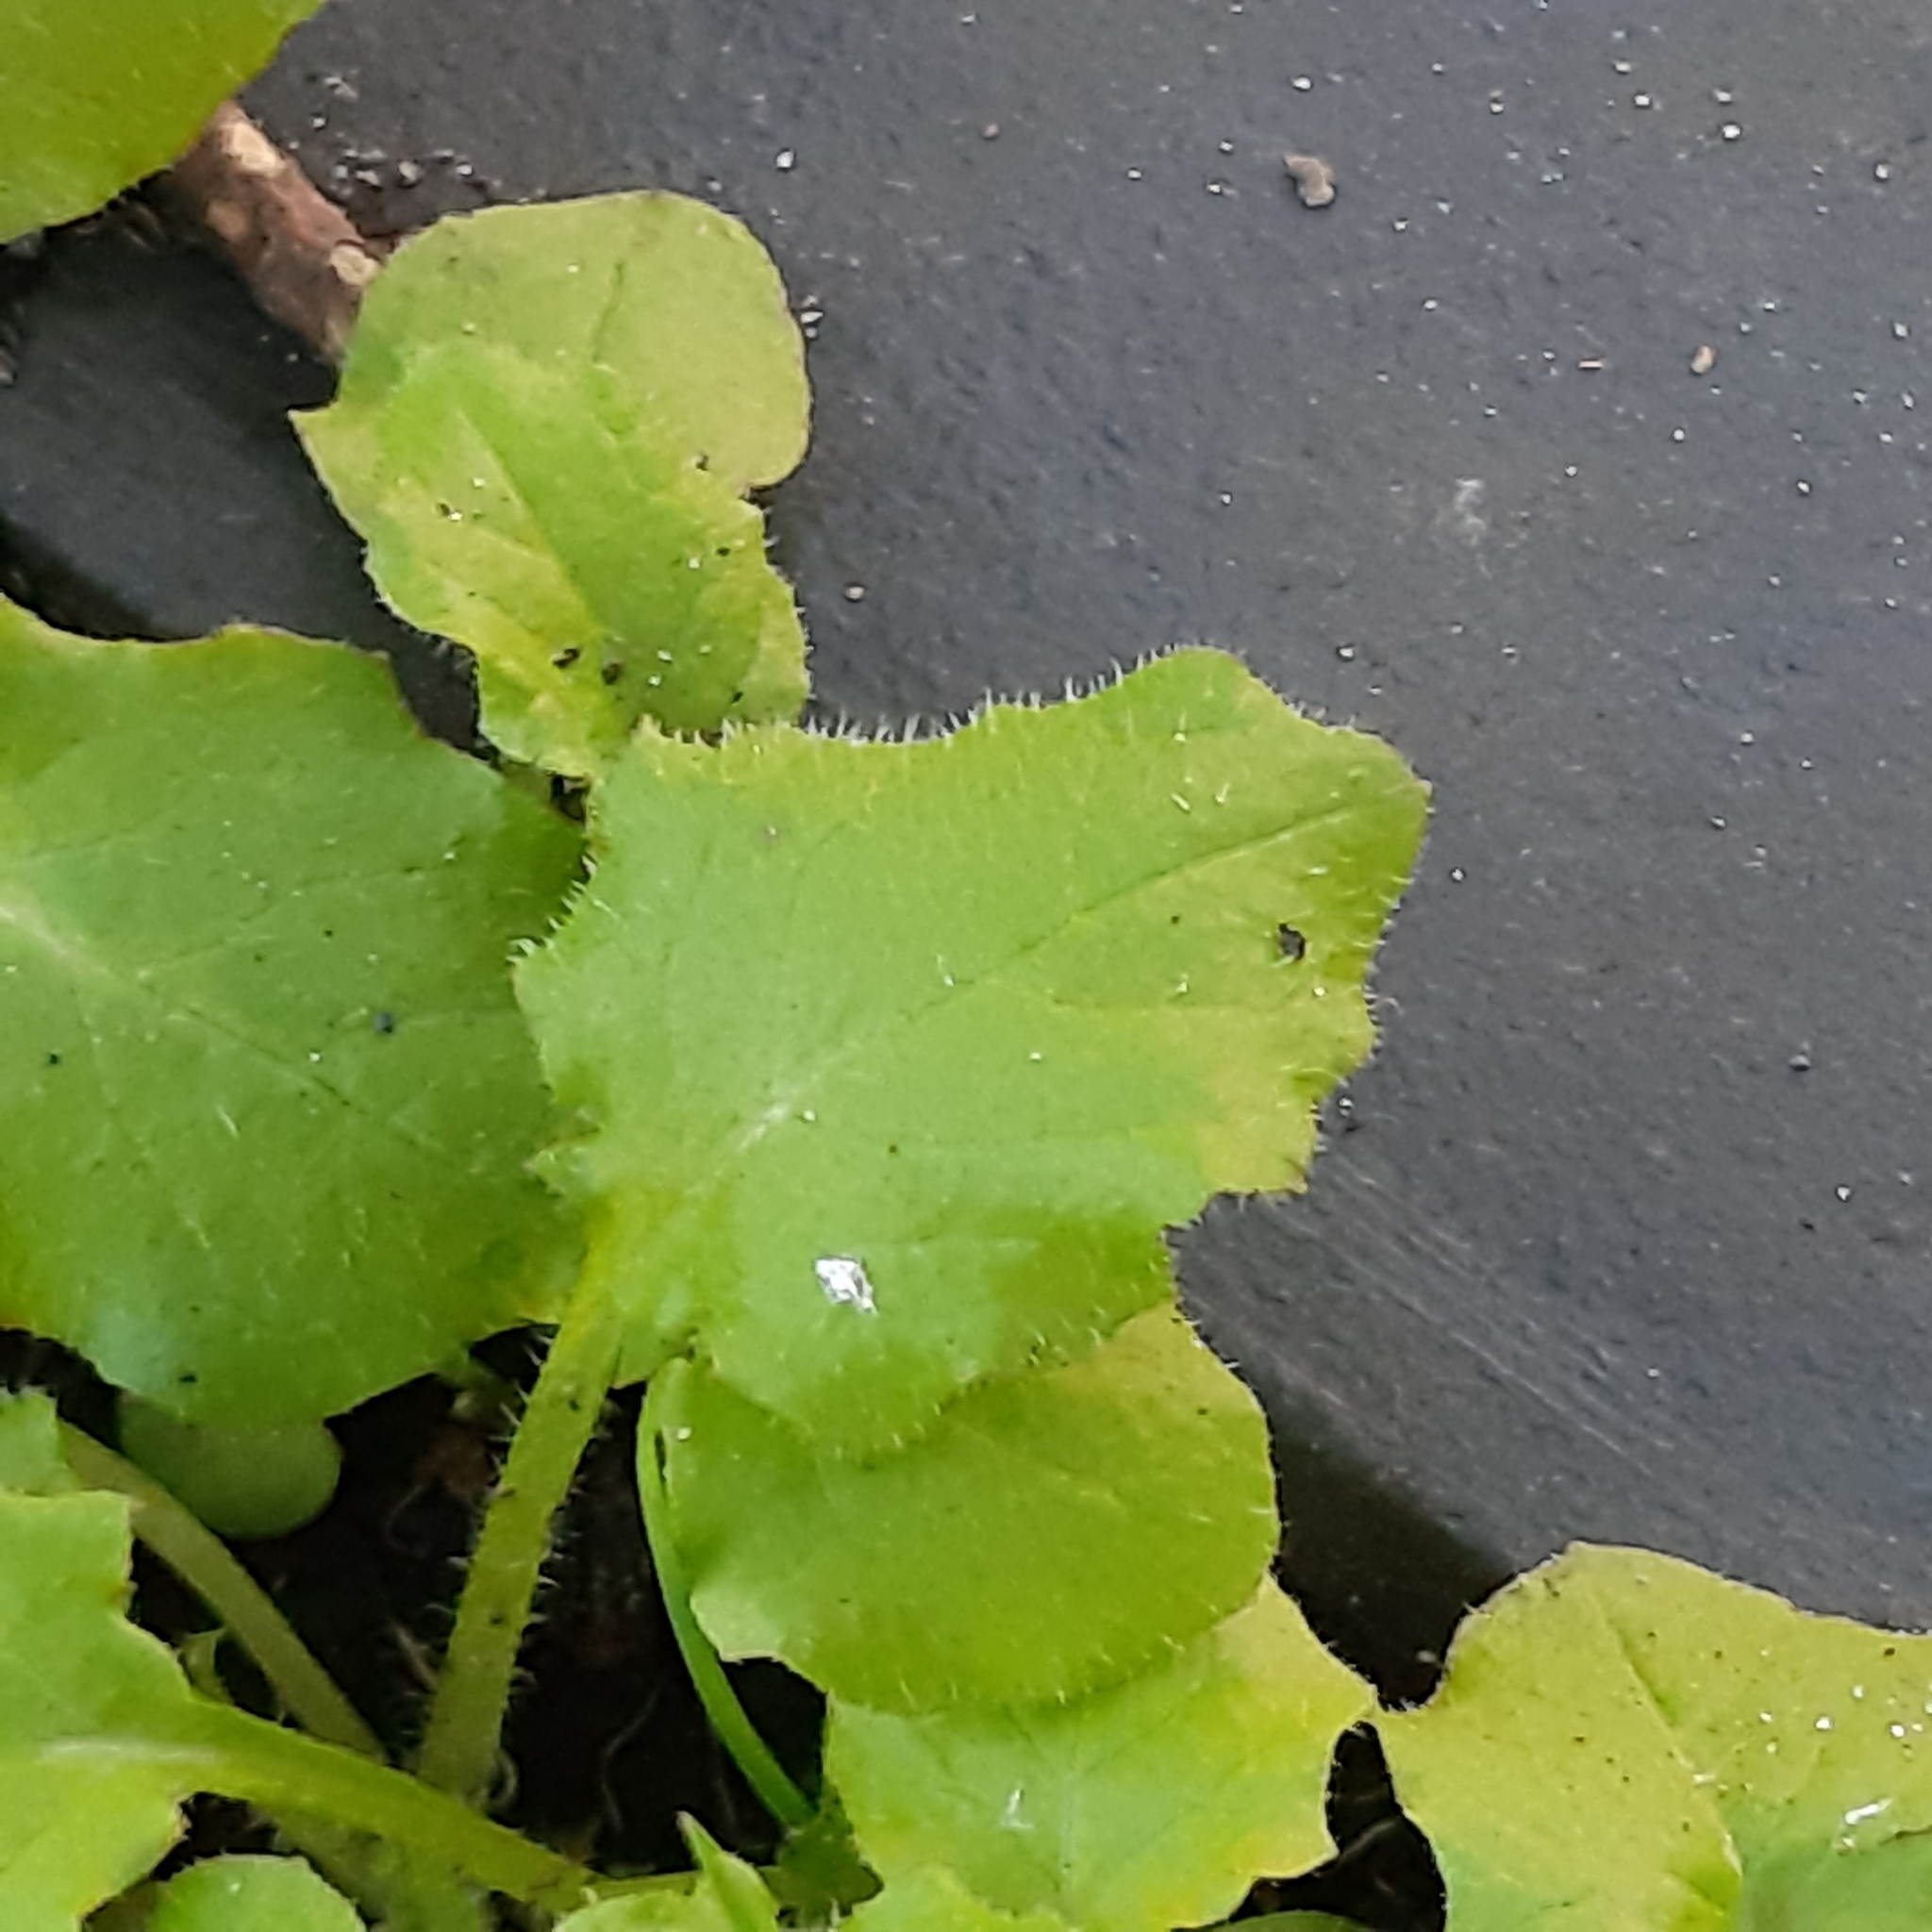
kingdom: Plantae
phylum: Tracheophyta
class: Magnoliopsida
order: Asterales
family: Asteraceae
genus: Lapsana
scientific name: Lapsana communis
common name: Nipplewort
